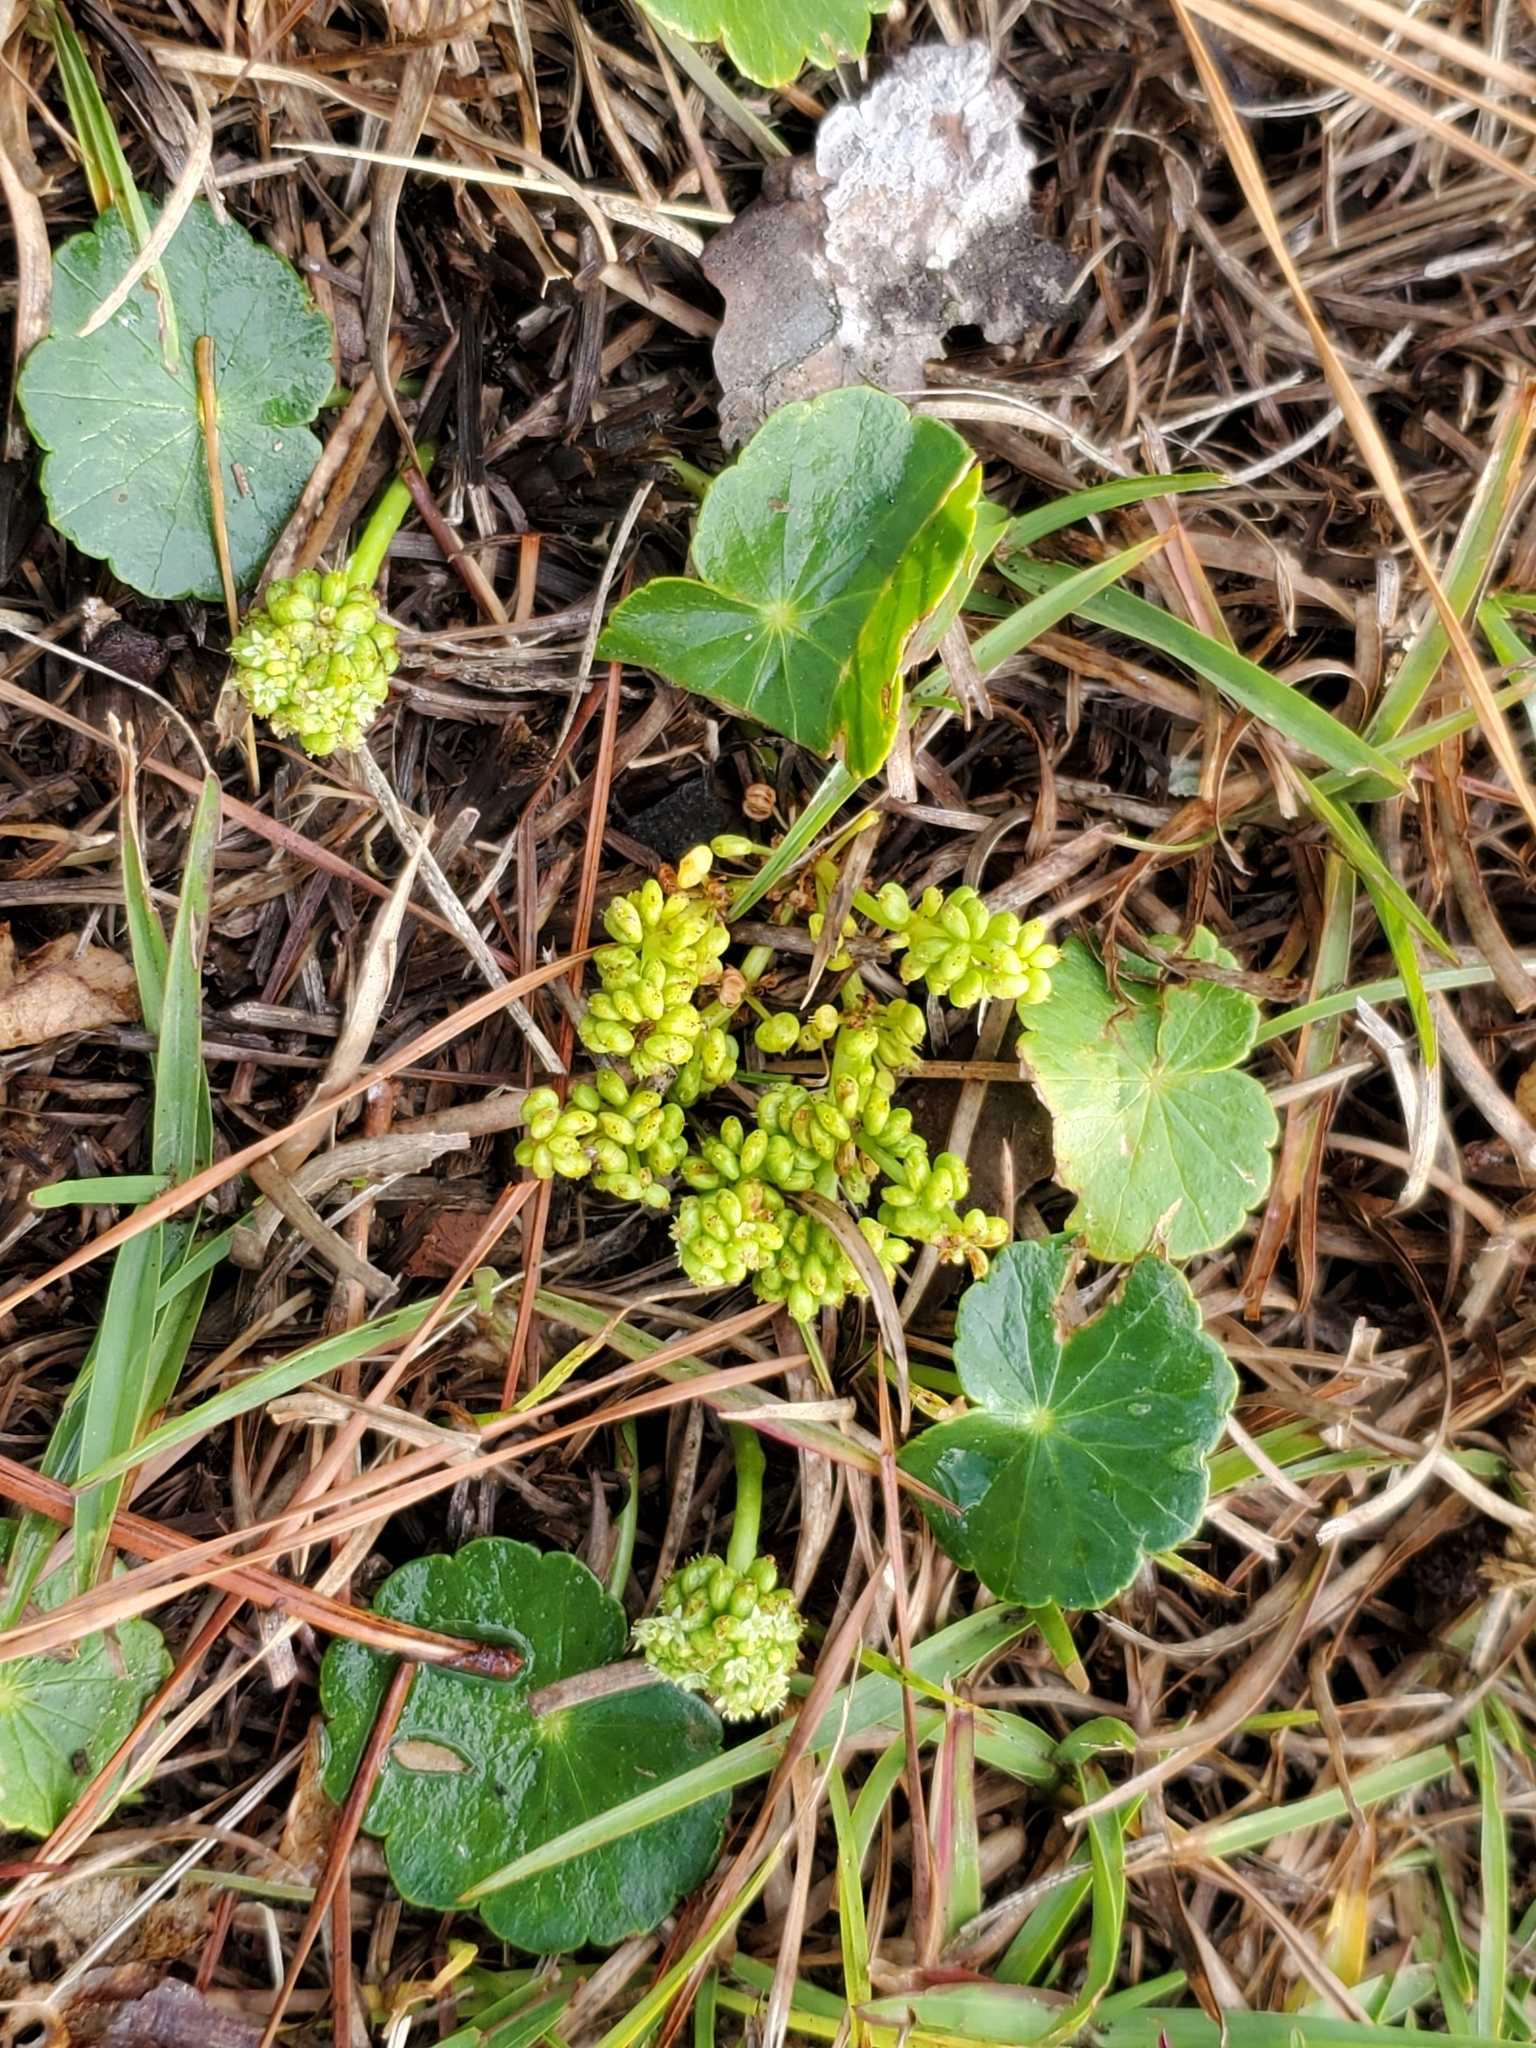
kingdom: Plantae
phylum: Tracheophyta
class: Magnoliopsida
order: Apiales
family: Araliaceae
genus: Hydrocotyle
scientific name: Hydrocotyle bonariensis
